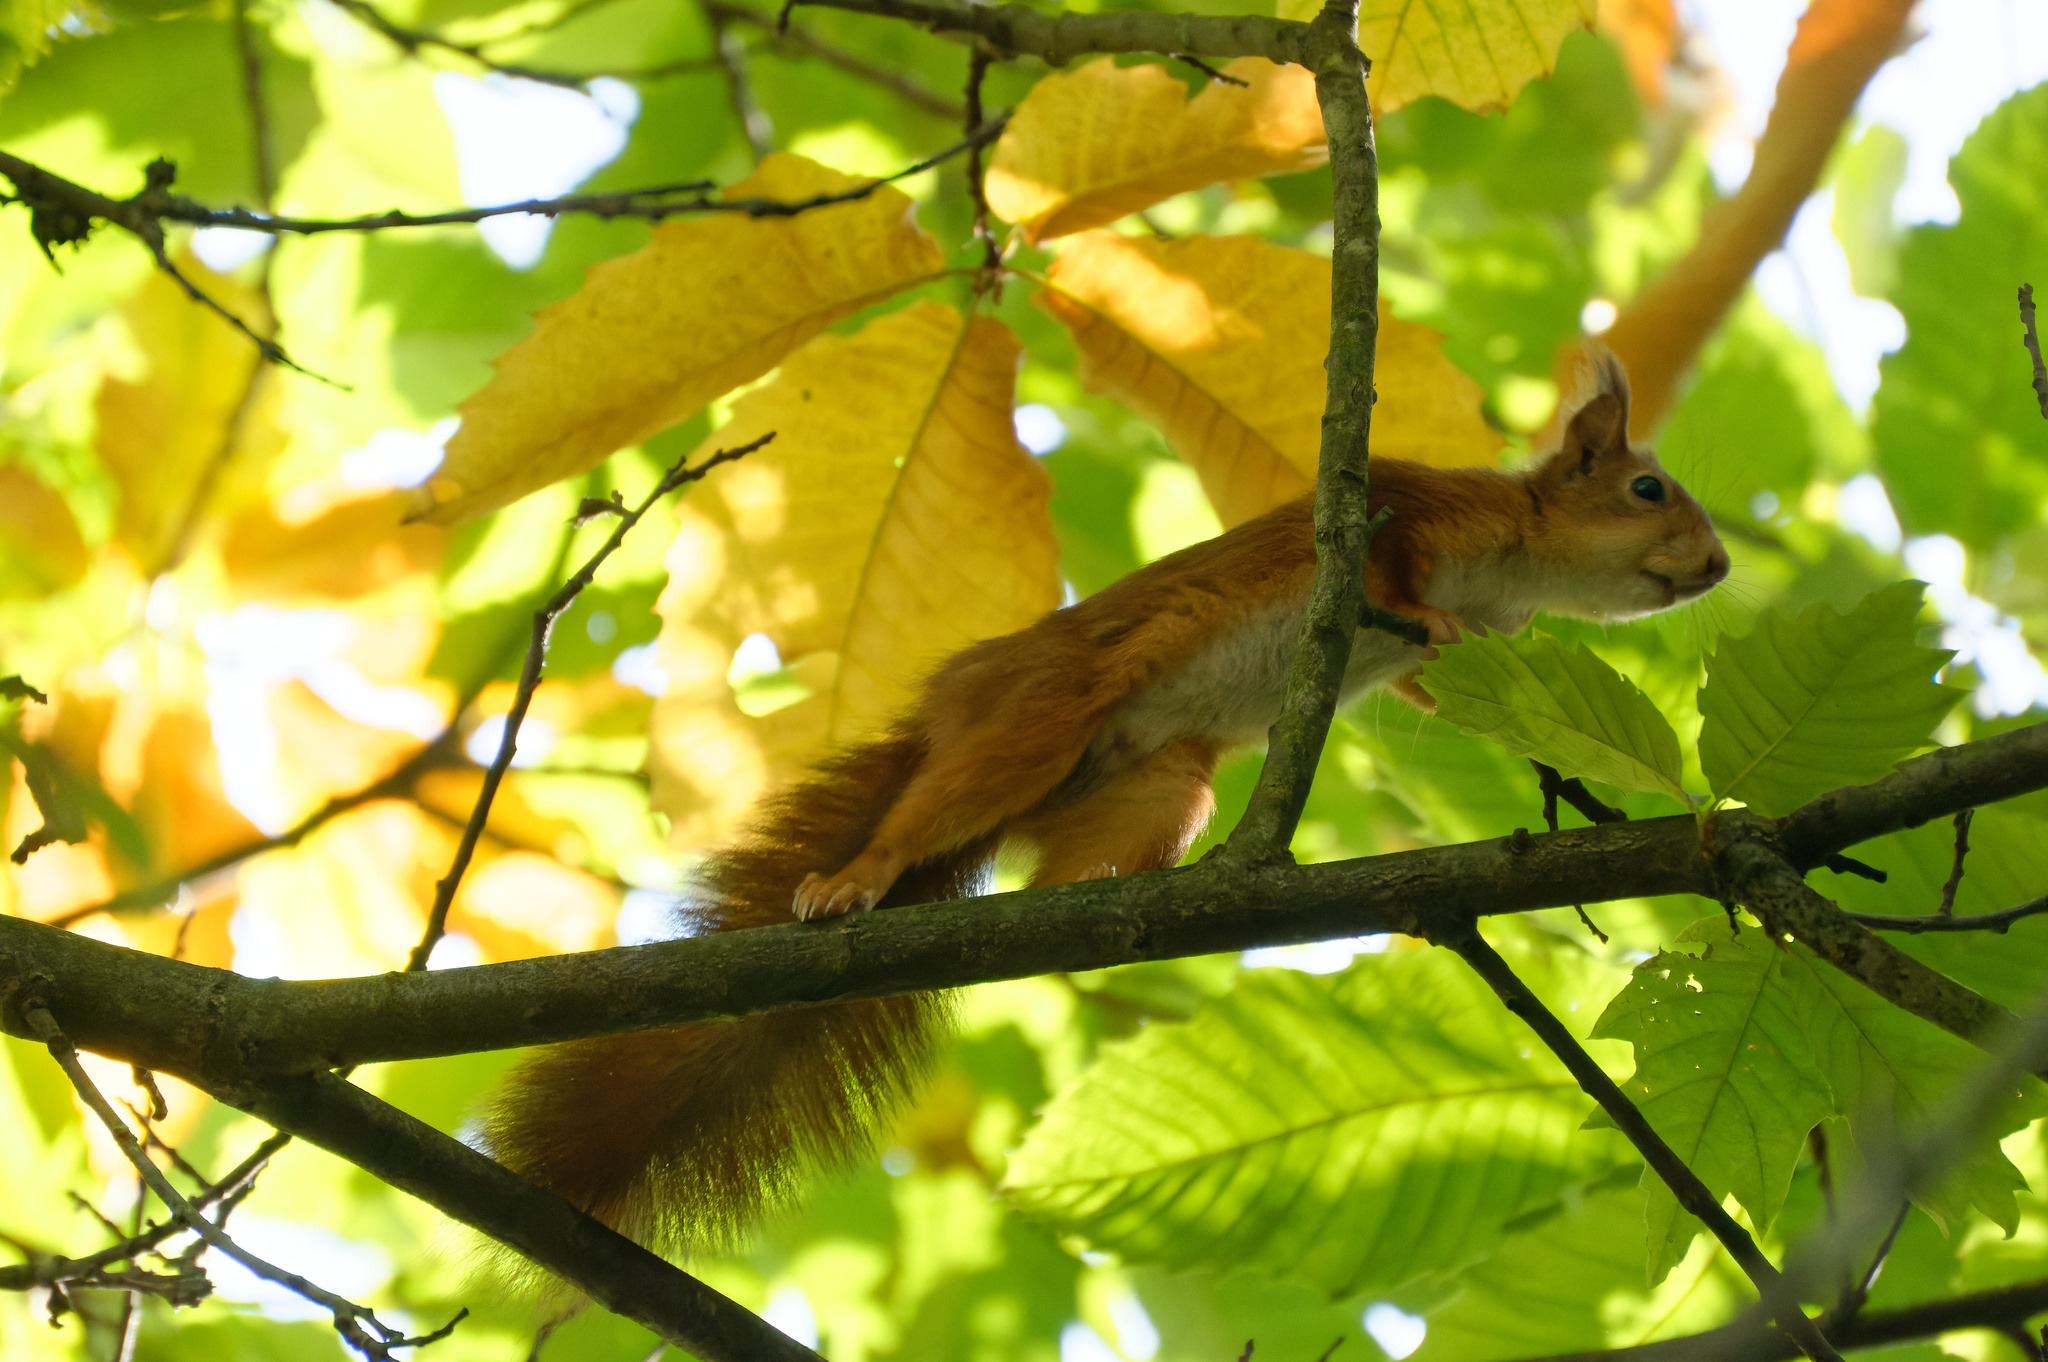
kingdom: Animalia
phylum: Chordata
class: Mammalia
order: Rodentia
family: Sciuridae
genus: Sciurus
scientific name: Sciurus vulgaris
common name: Eurasian red squirrel
